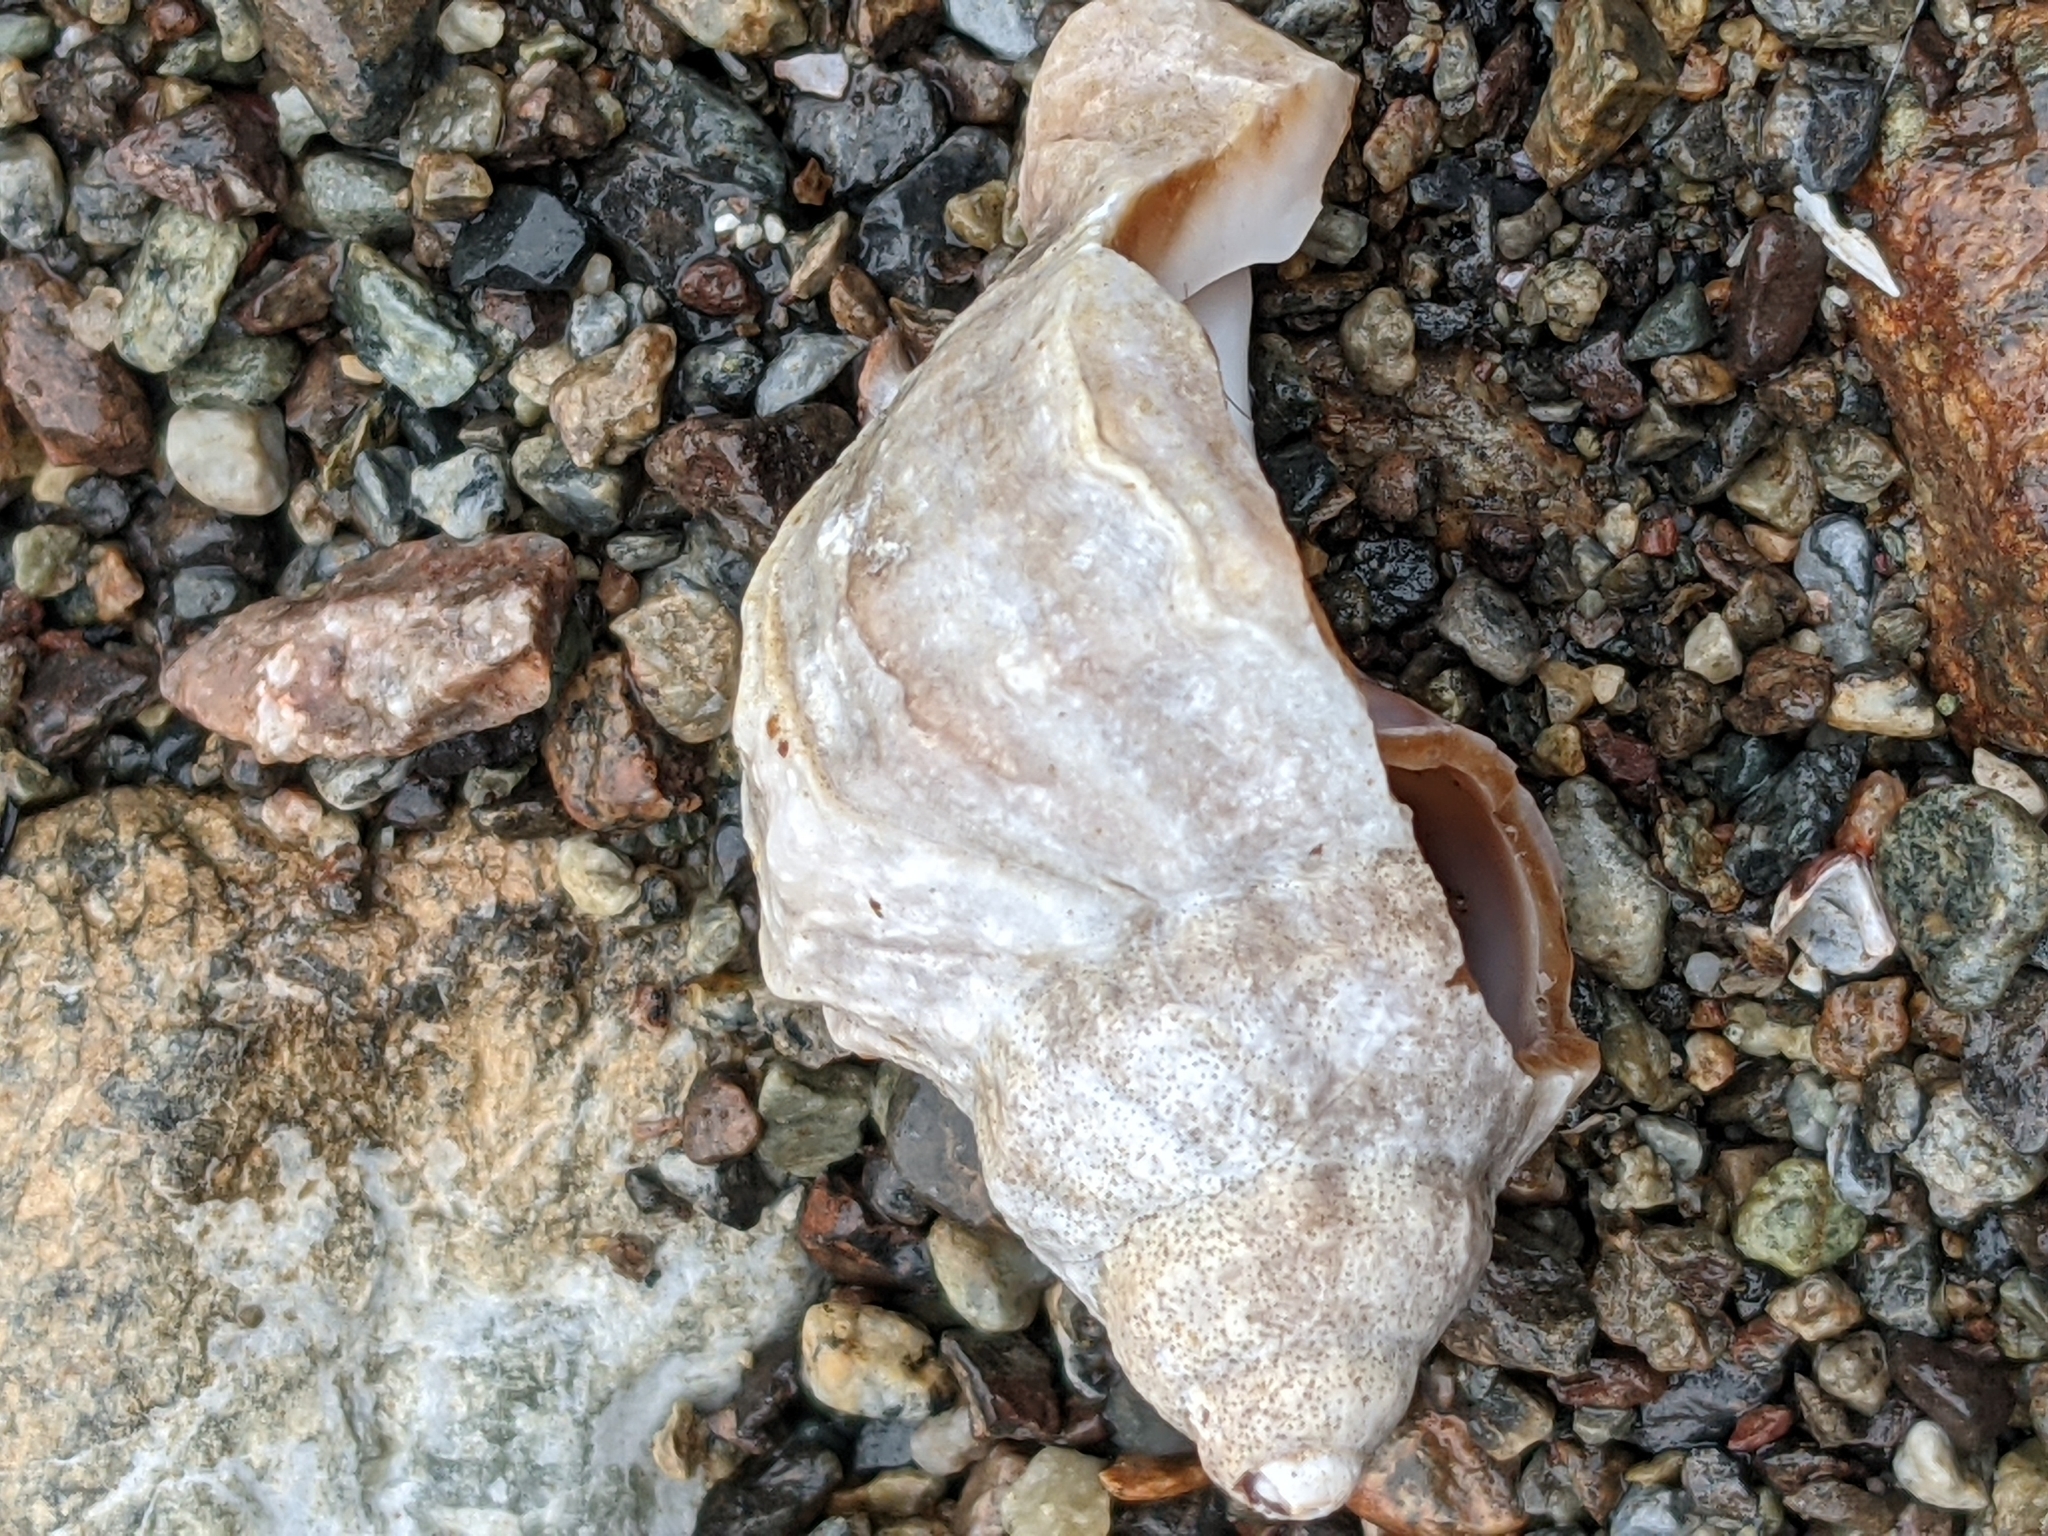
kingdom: Animalia
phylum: Mollusca
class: Gastropoda
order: Neogastropoda
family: Muricidae
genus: Nucella
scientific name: Nucella lamellosa
